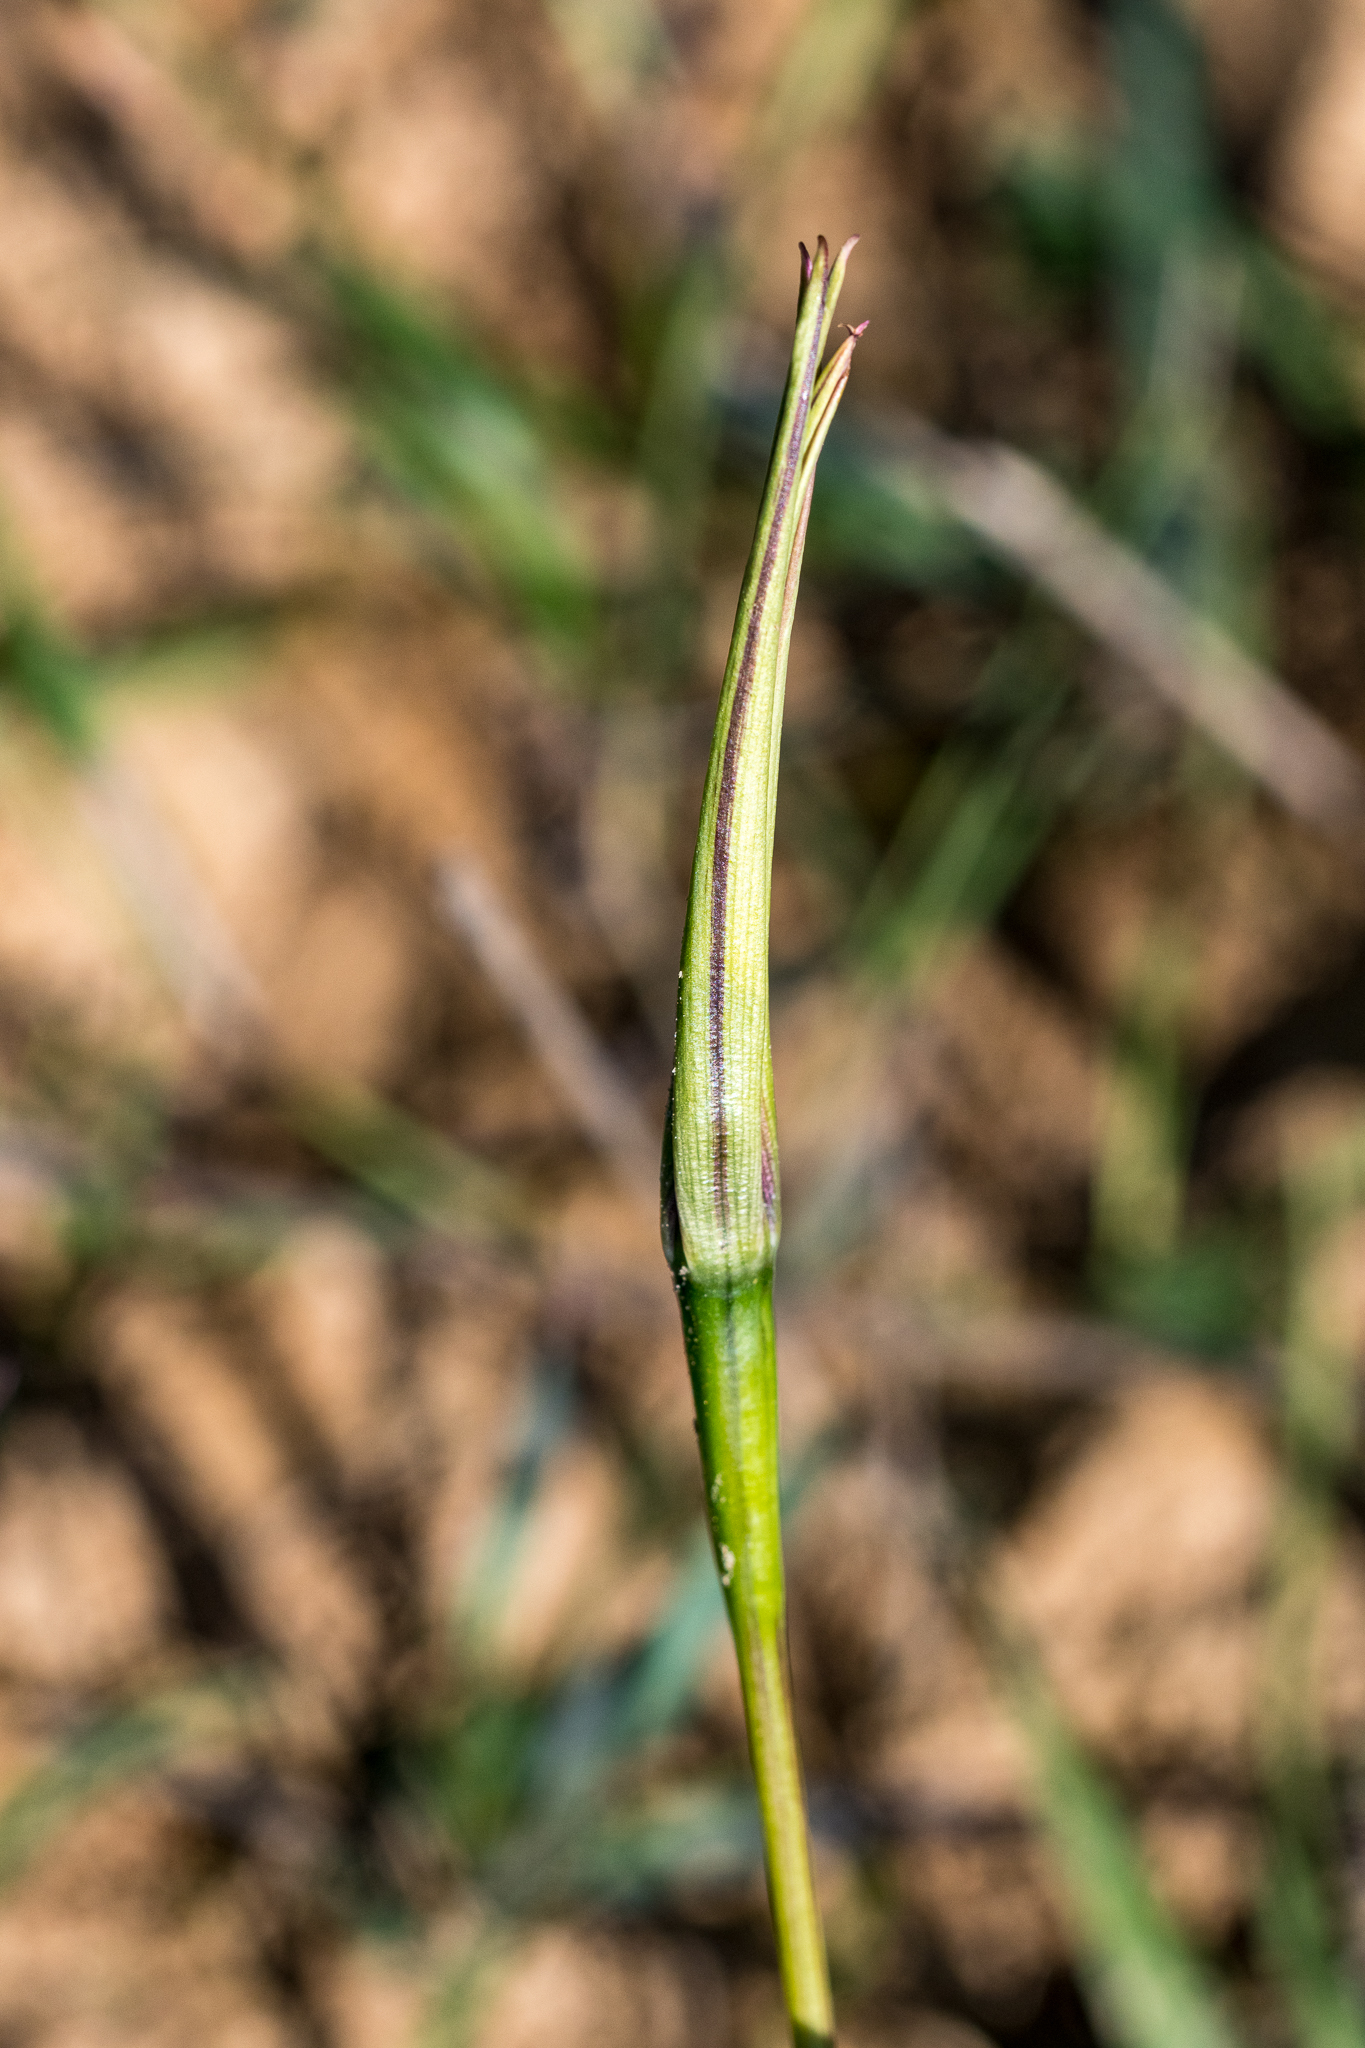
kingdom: Plantae
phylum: Tracheophyta
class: Liliopsida
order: Asparagales
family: Hypoxidaceae
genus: Pauridia
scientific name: Pauridia capensis
